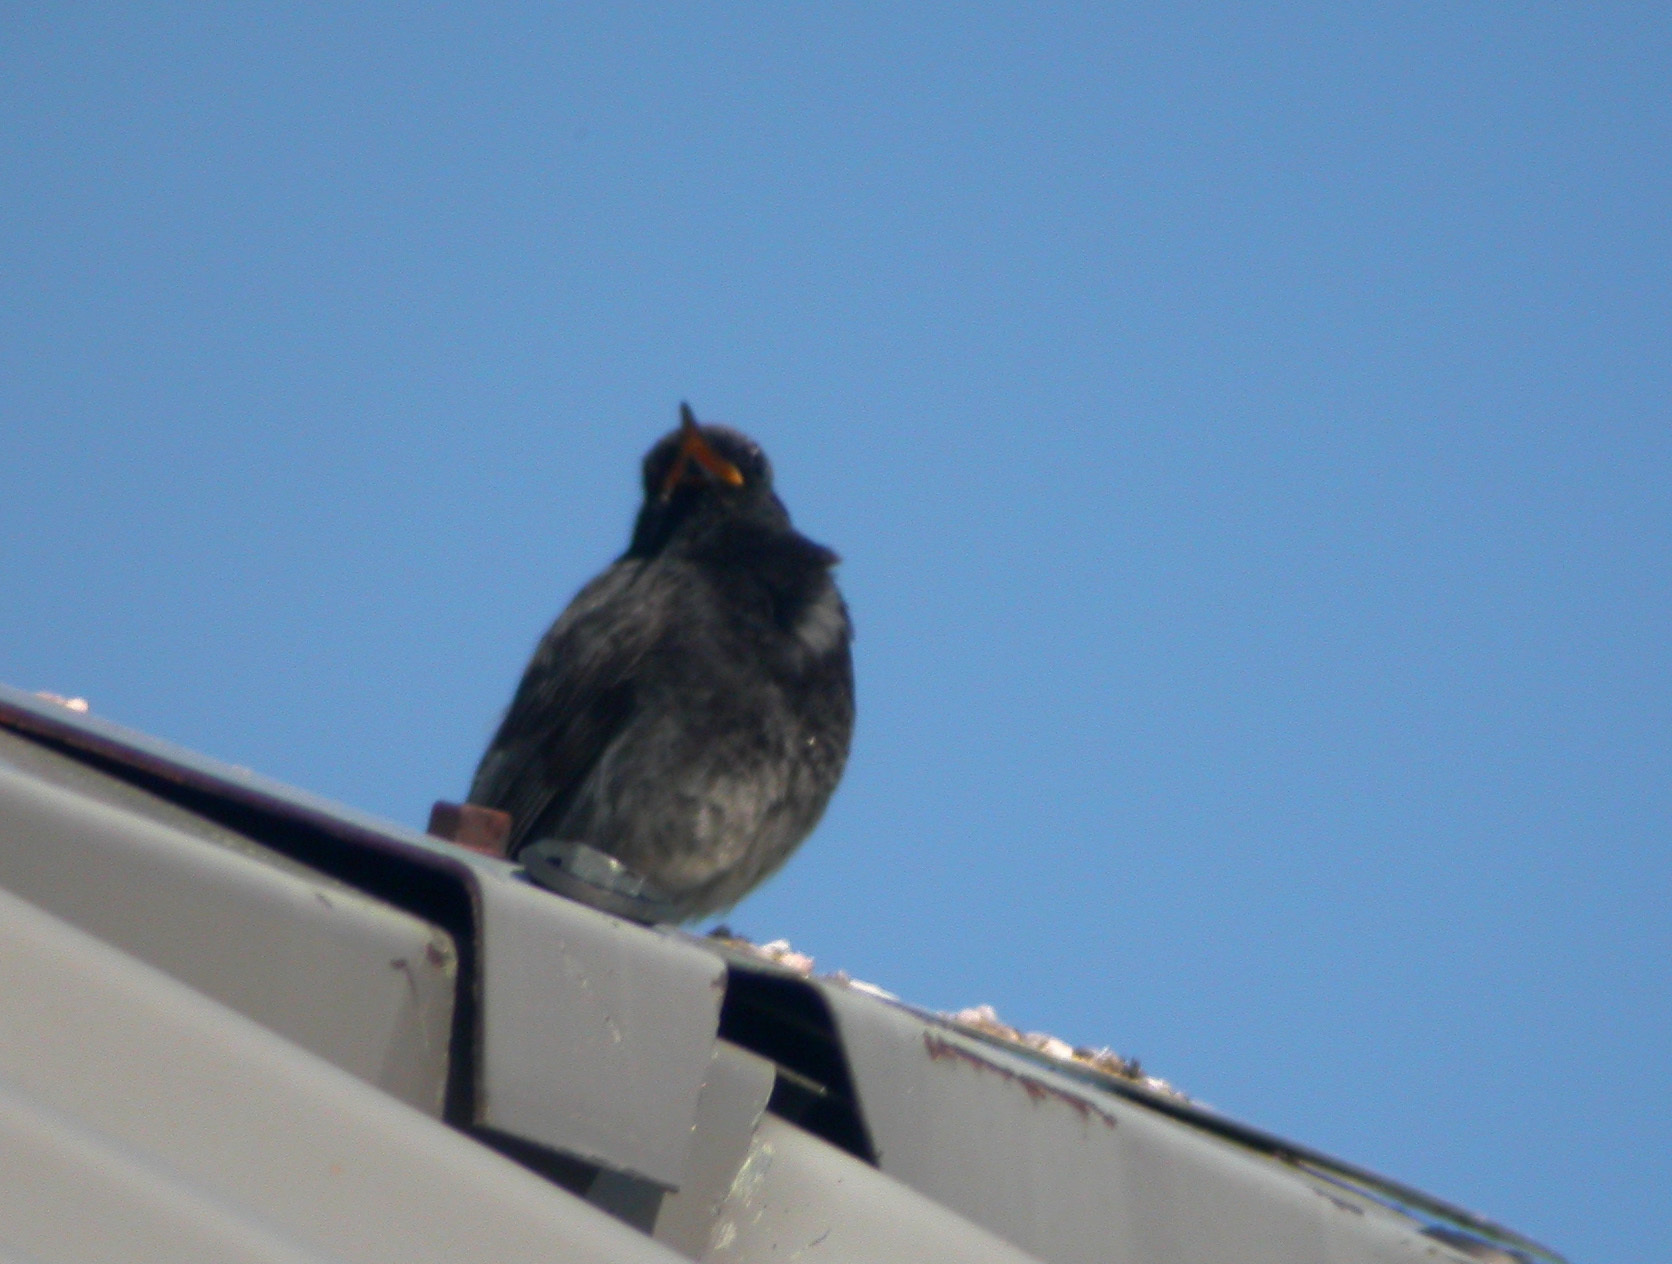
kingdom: Animalia
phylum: Chordata
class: Aves
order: Passeriformes
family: Muscicapidae
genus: Phoenicurus
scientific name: Phoenicurus ochruros
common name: Black redstart
